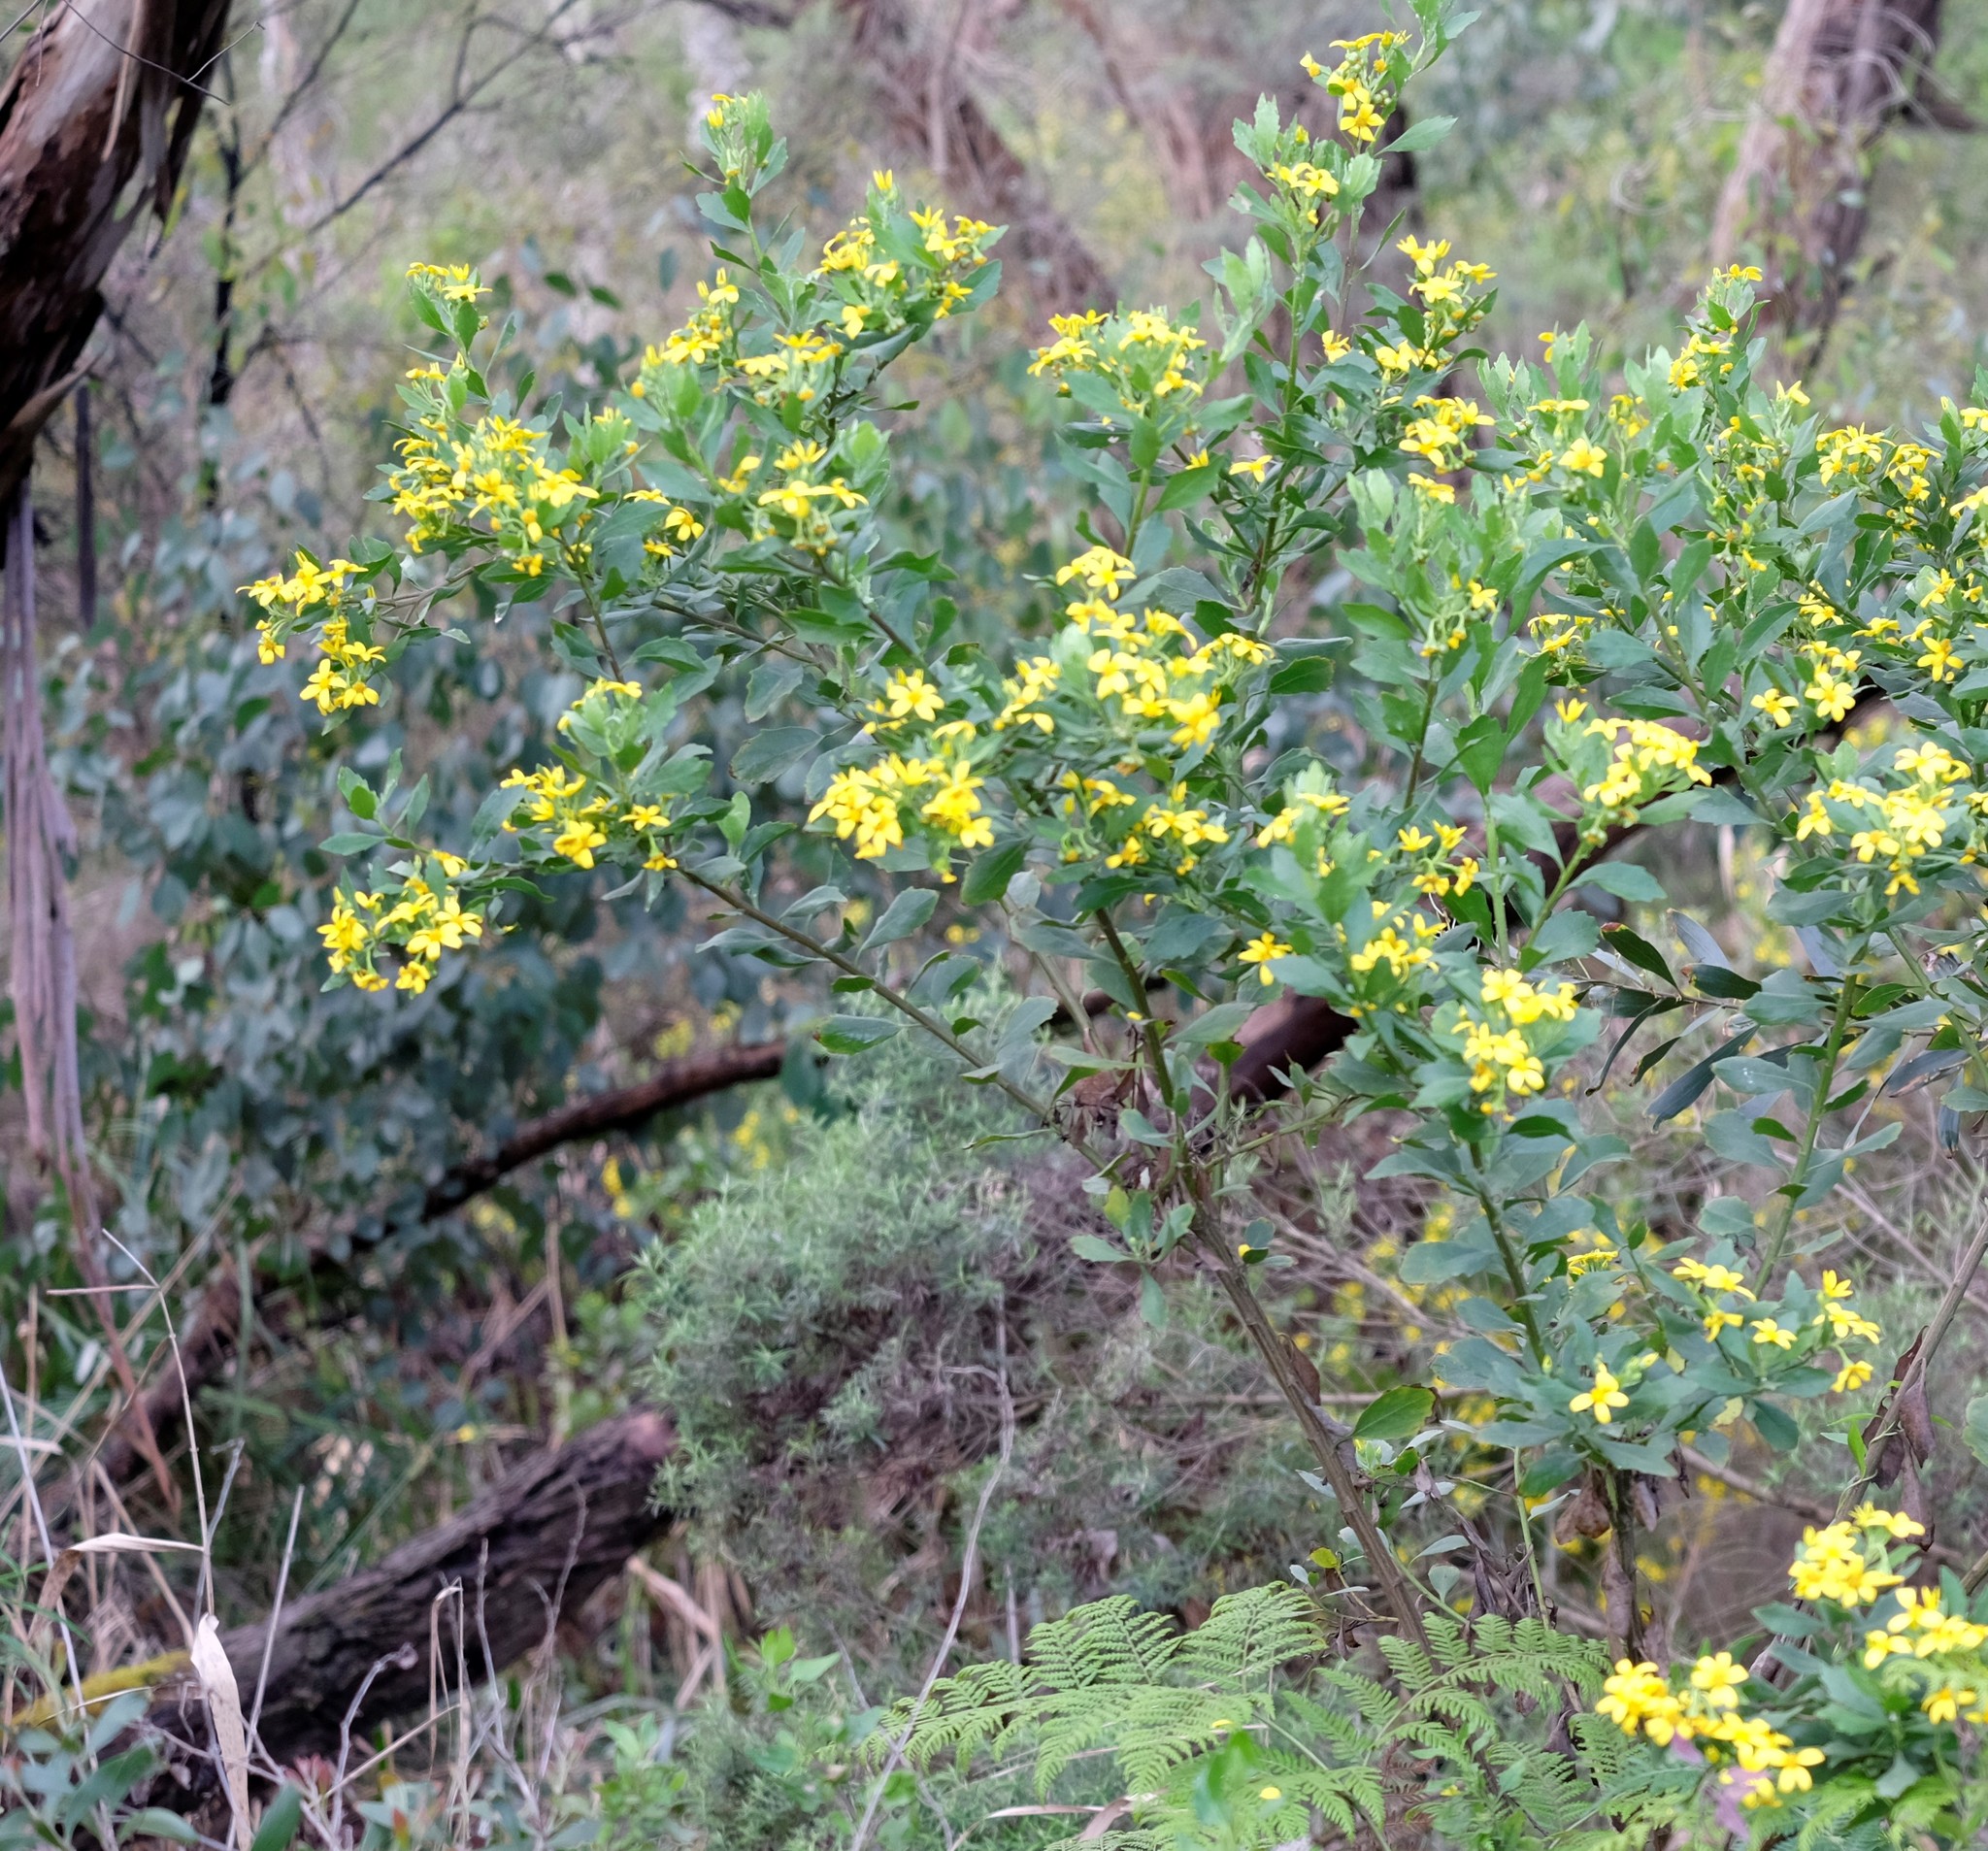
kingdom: Plantae
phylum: Tracheophyta
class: Magnoliopsida
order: Asterales
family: Asteraceae
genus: Osteospermum
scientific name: Osteospermum moniliferum
